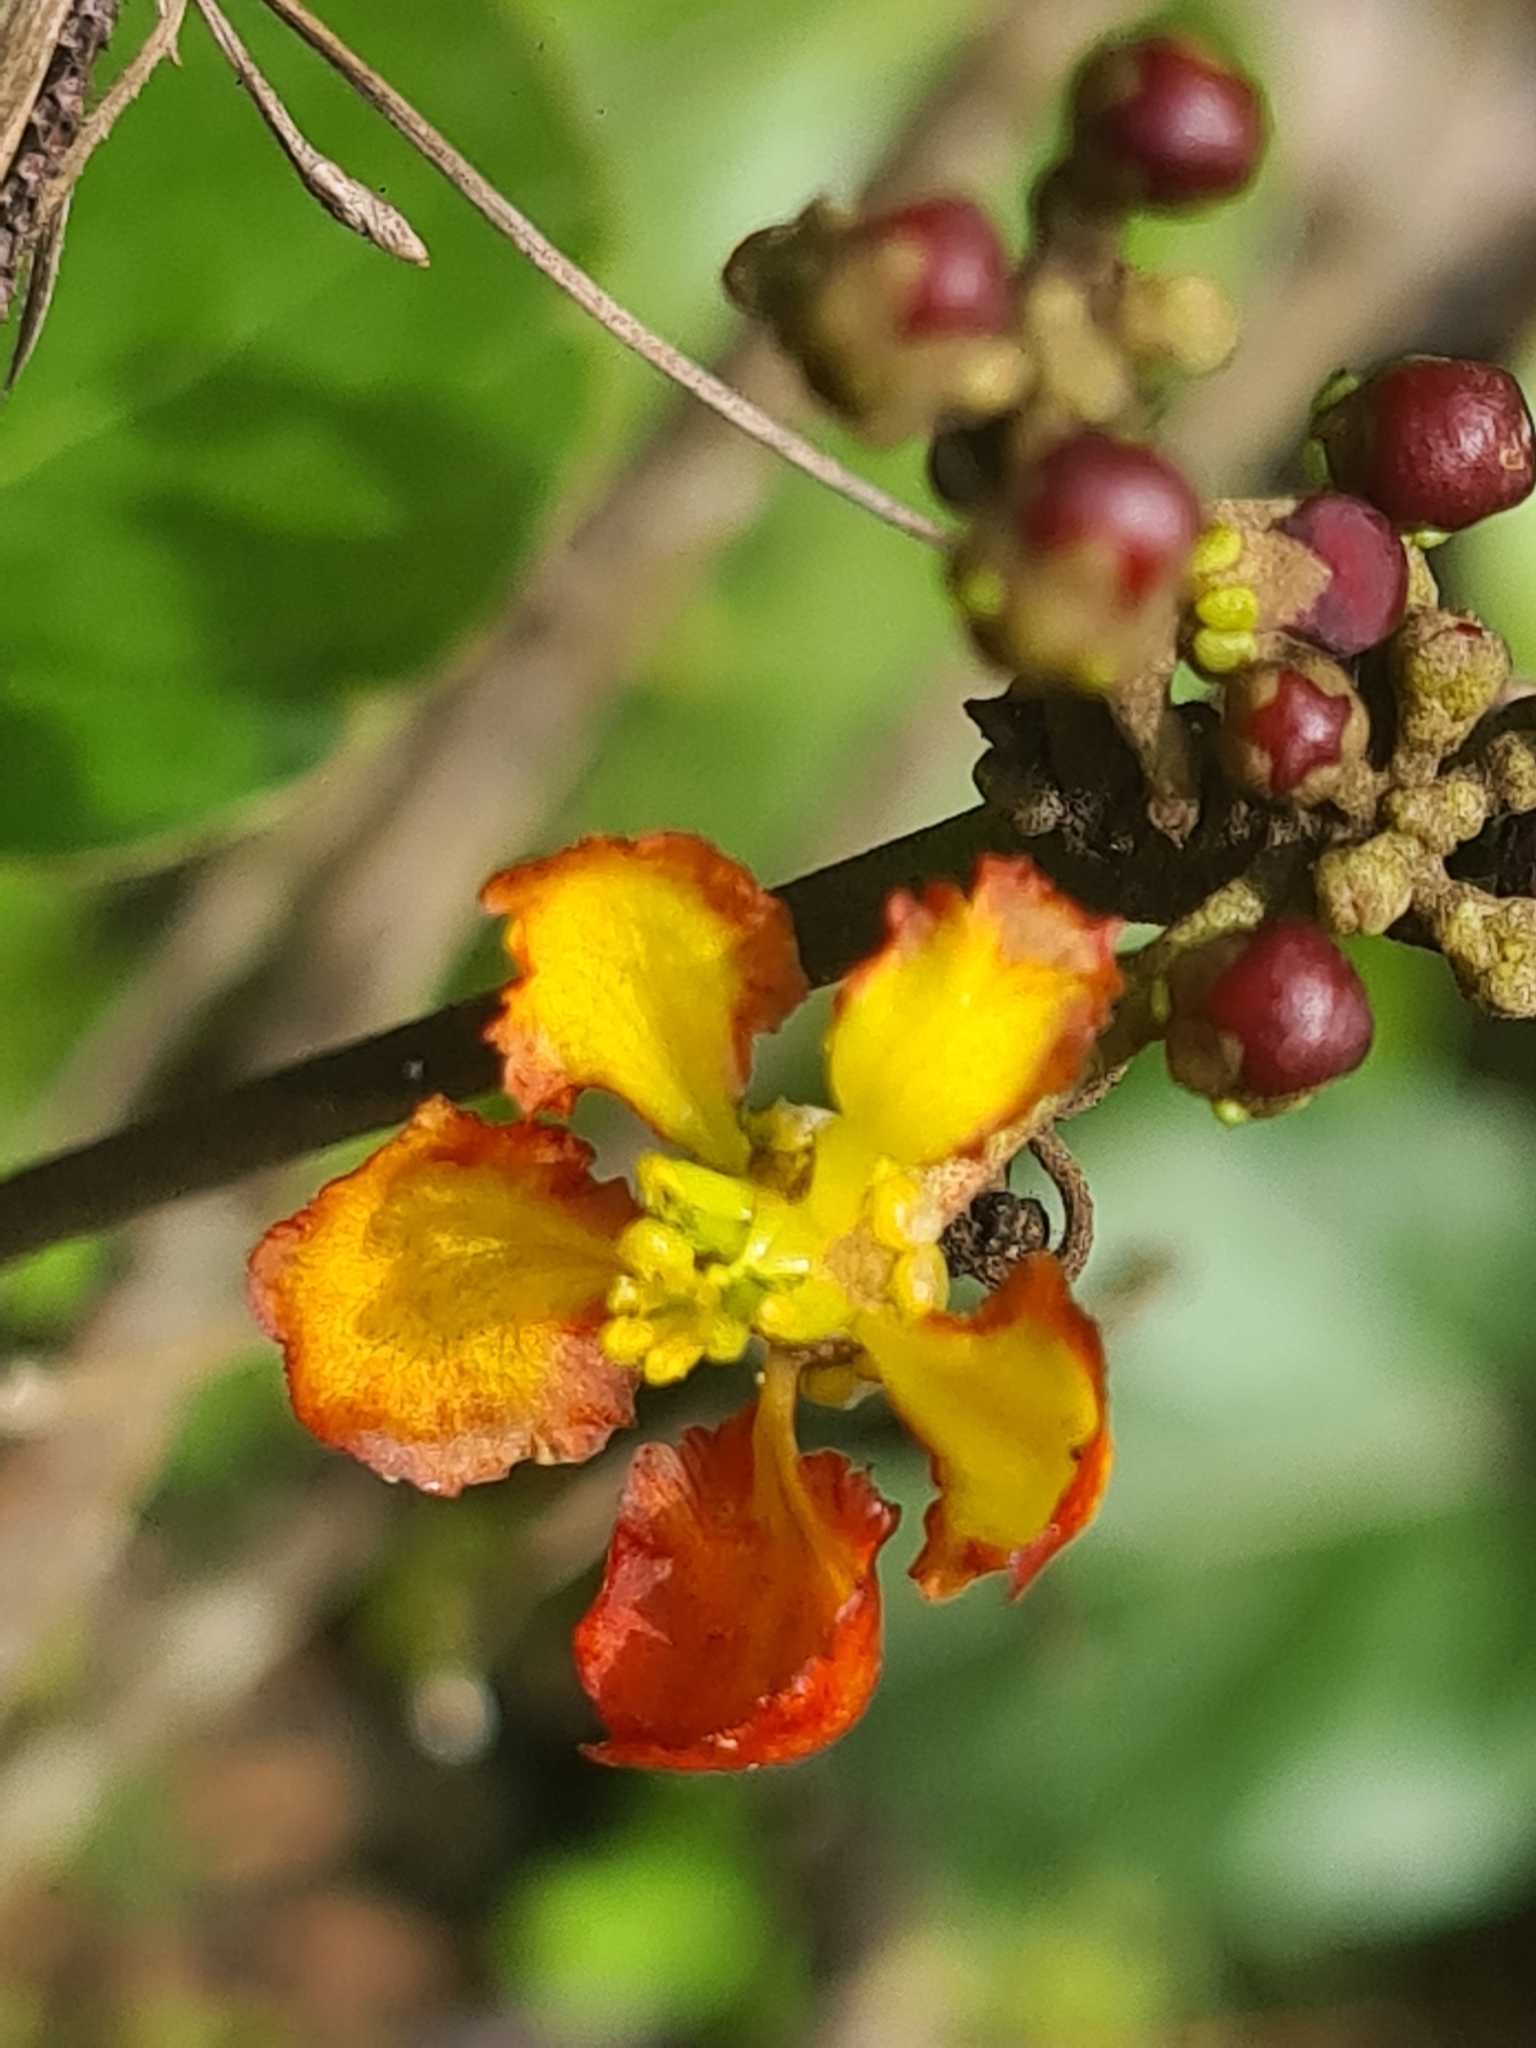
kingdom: Plantae
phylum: Tracheophyta
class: Magnoliopsida
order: Malpighiales
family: Malpighiaceae
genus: Stigmaphyllon
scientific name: Stigmaphyllon sinuatum
